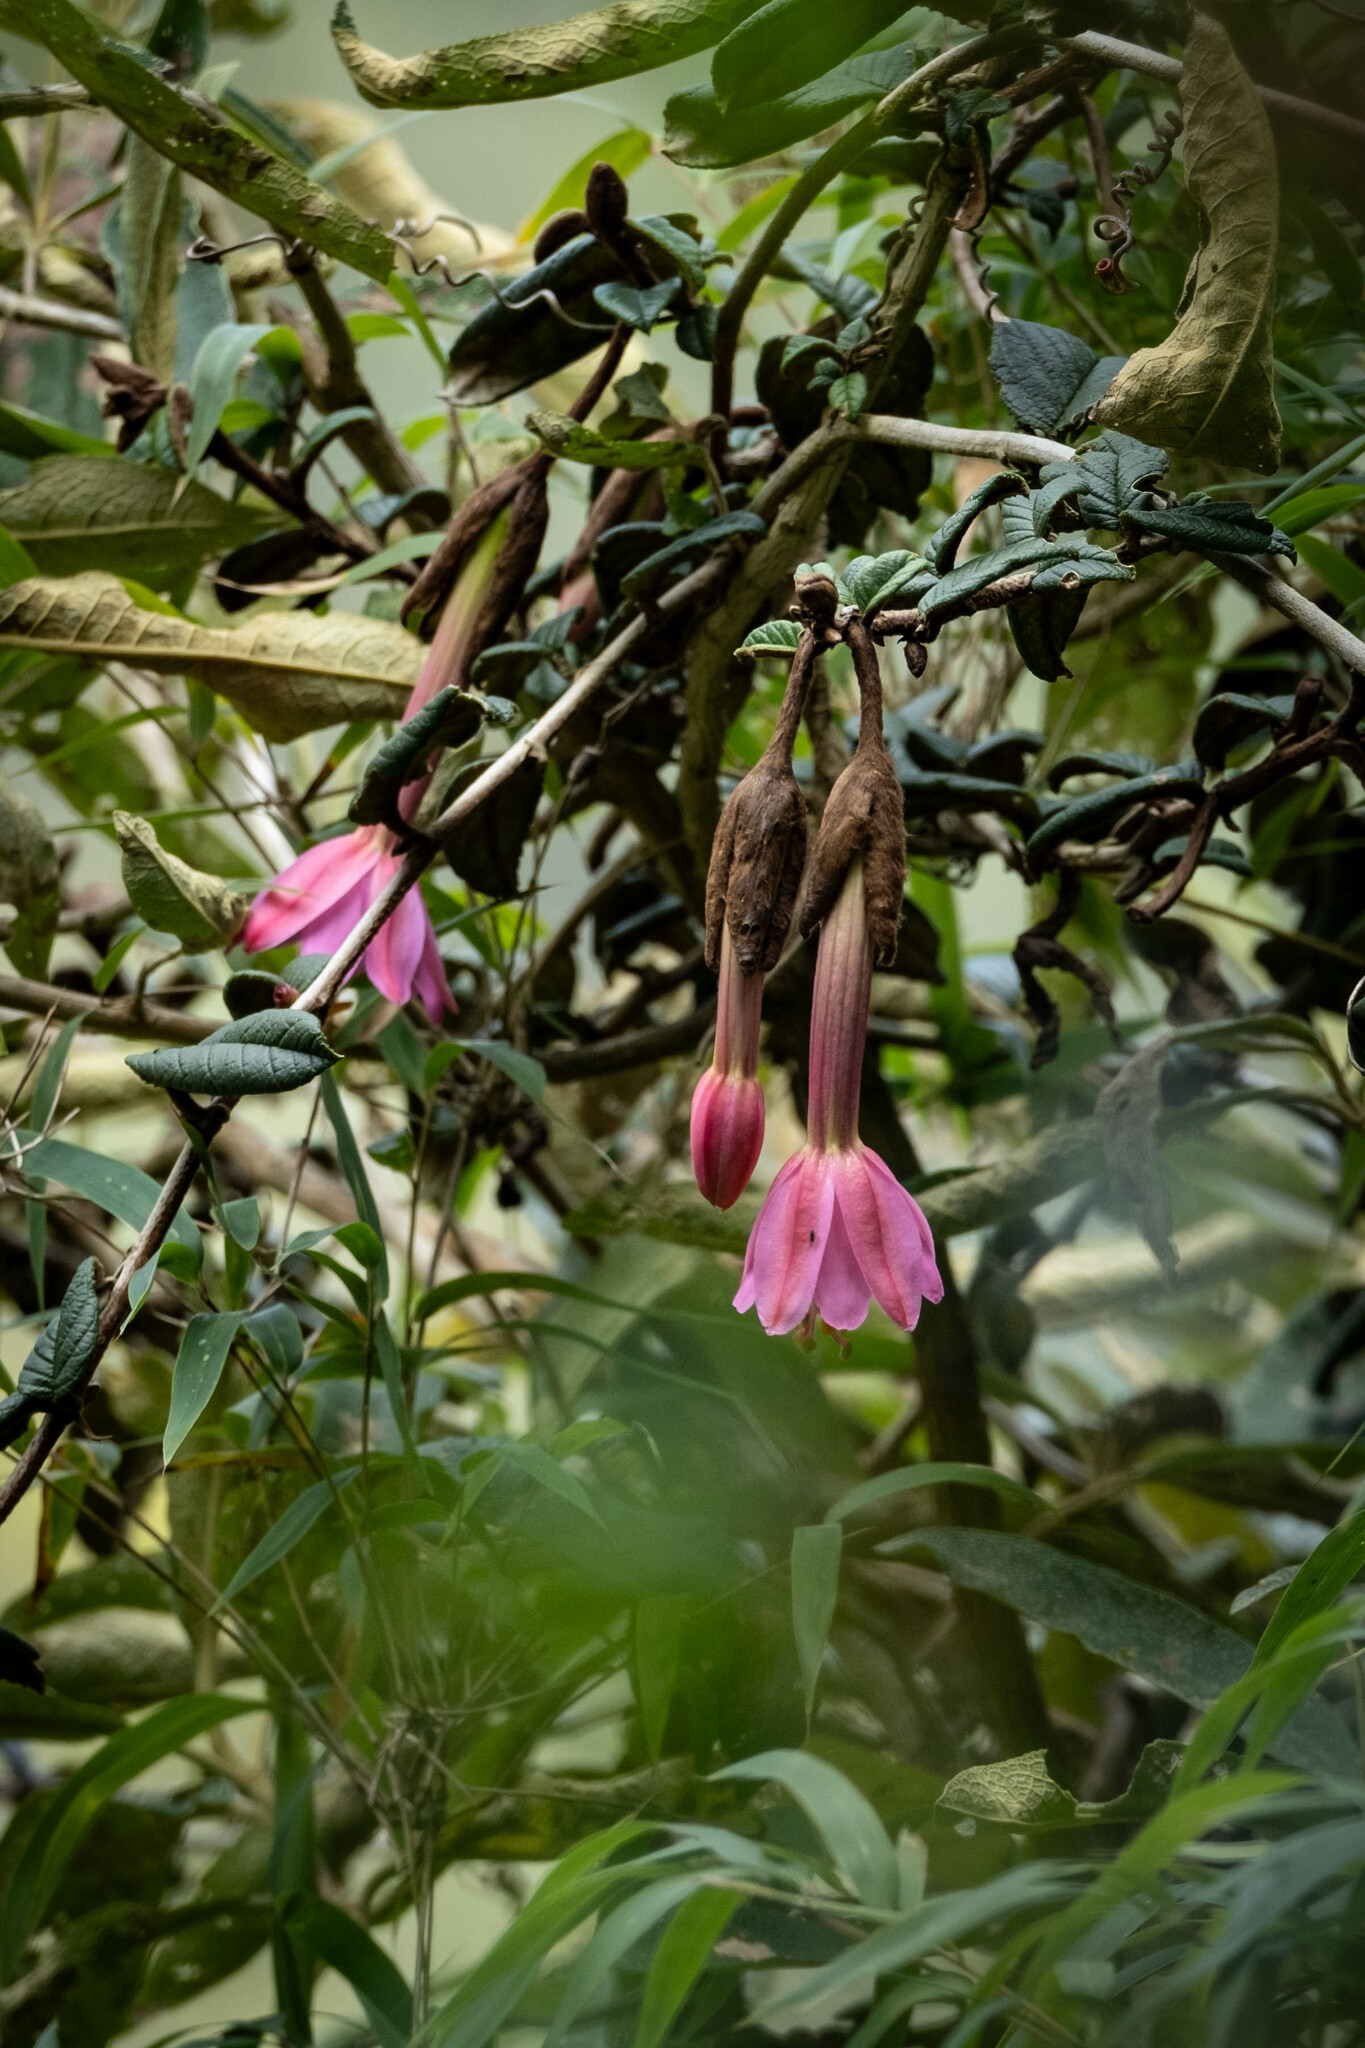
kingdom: Plantae
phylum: Tracheophyta
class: Magnoliopsida
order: Malpighiales
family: Passifloraceae
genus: Passiflora
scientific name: Passiflora lanata
